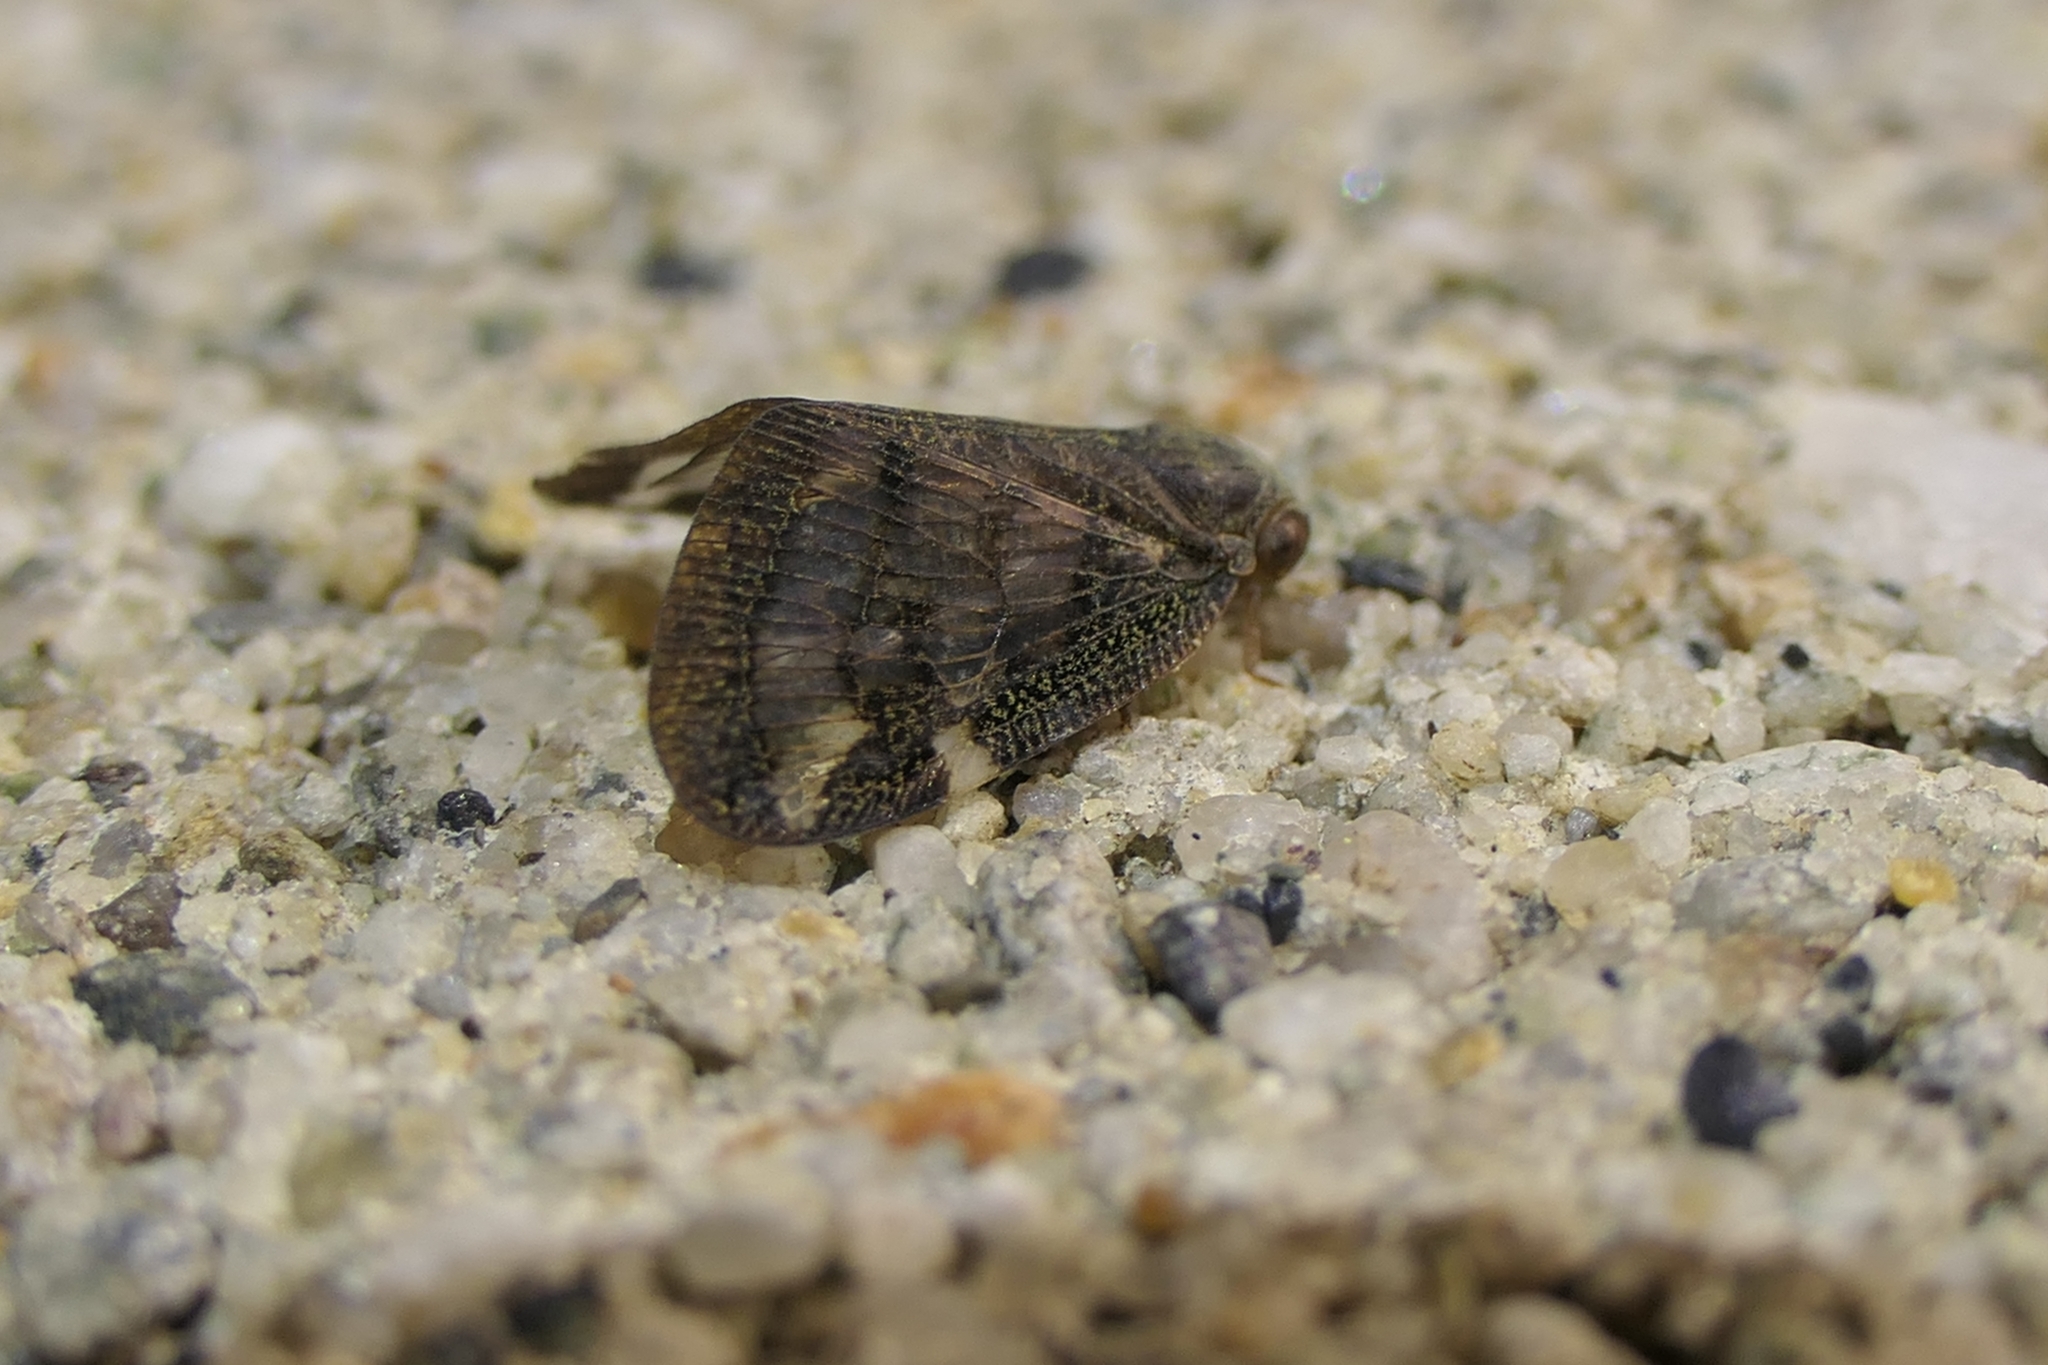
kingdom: Animalia
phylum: Arthropoda
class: Insecta
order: Hemiptera
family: Ricaniidae
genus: Scolypopa
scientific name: Scolypopa australis
